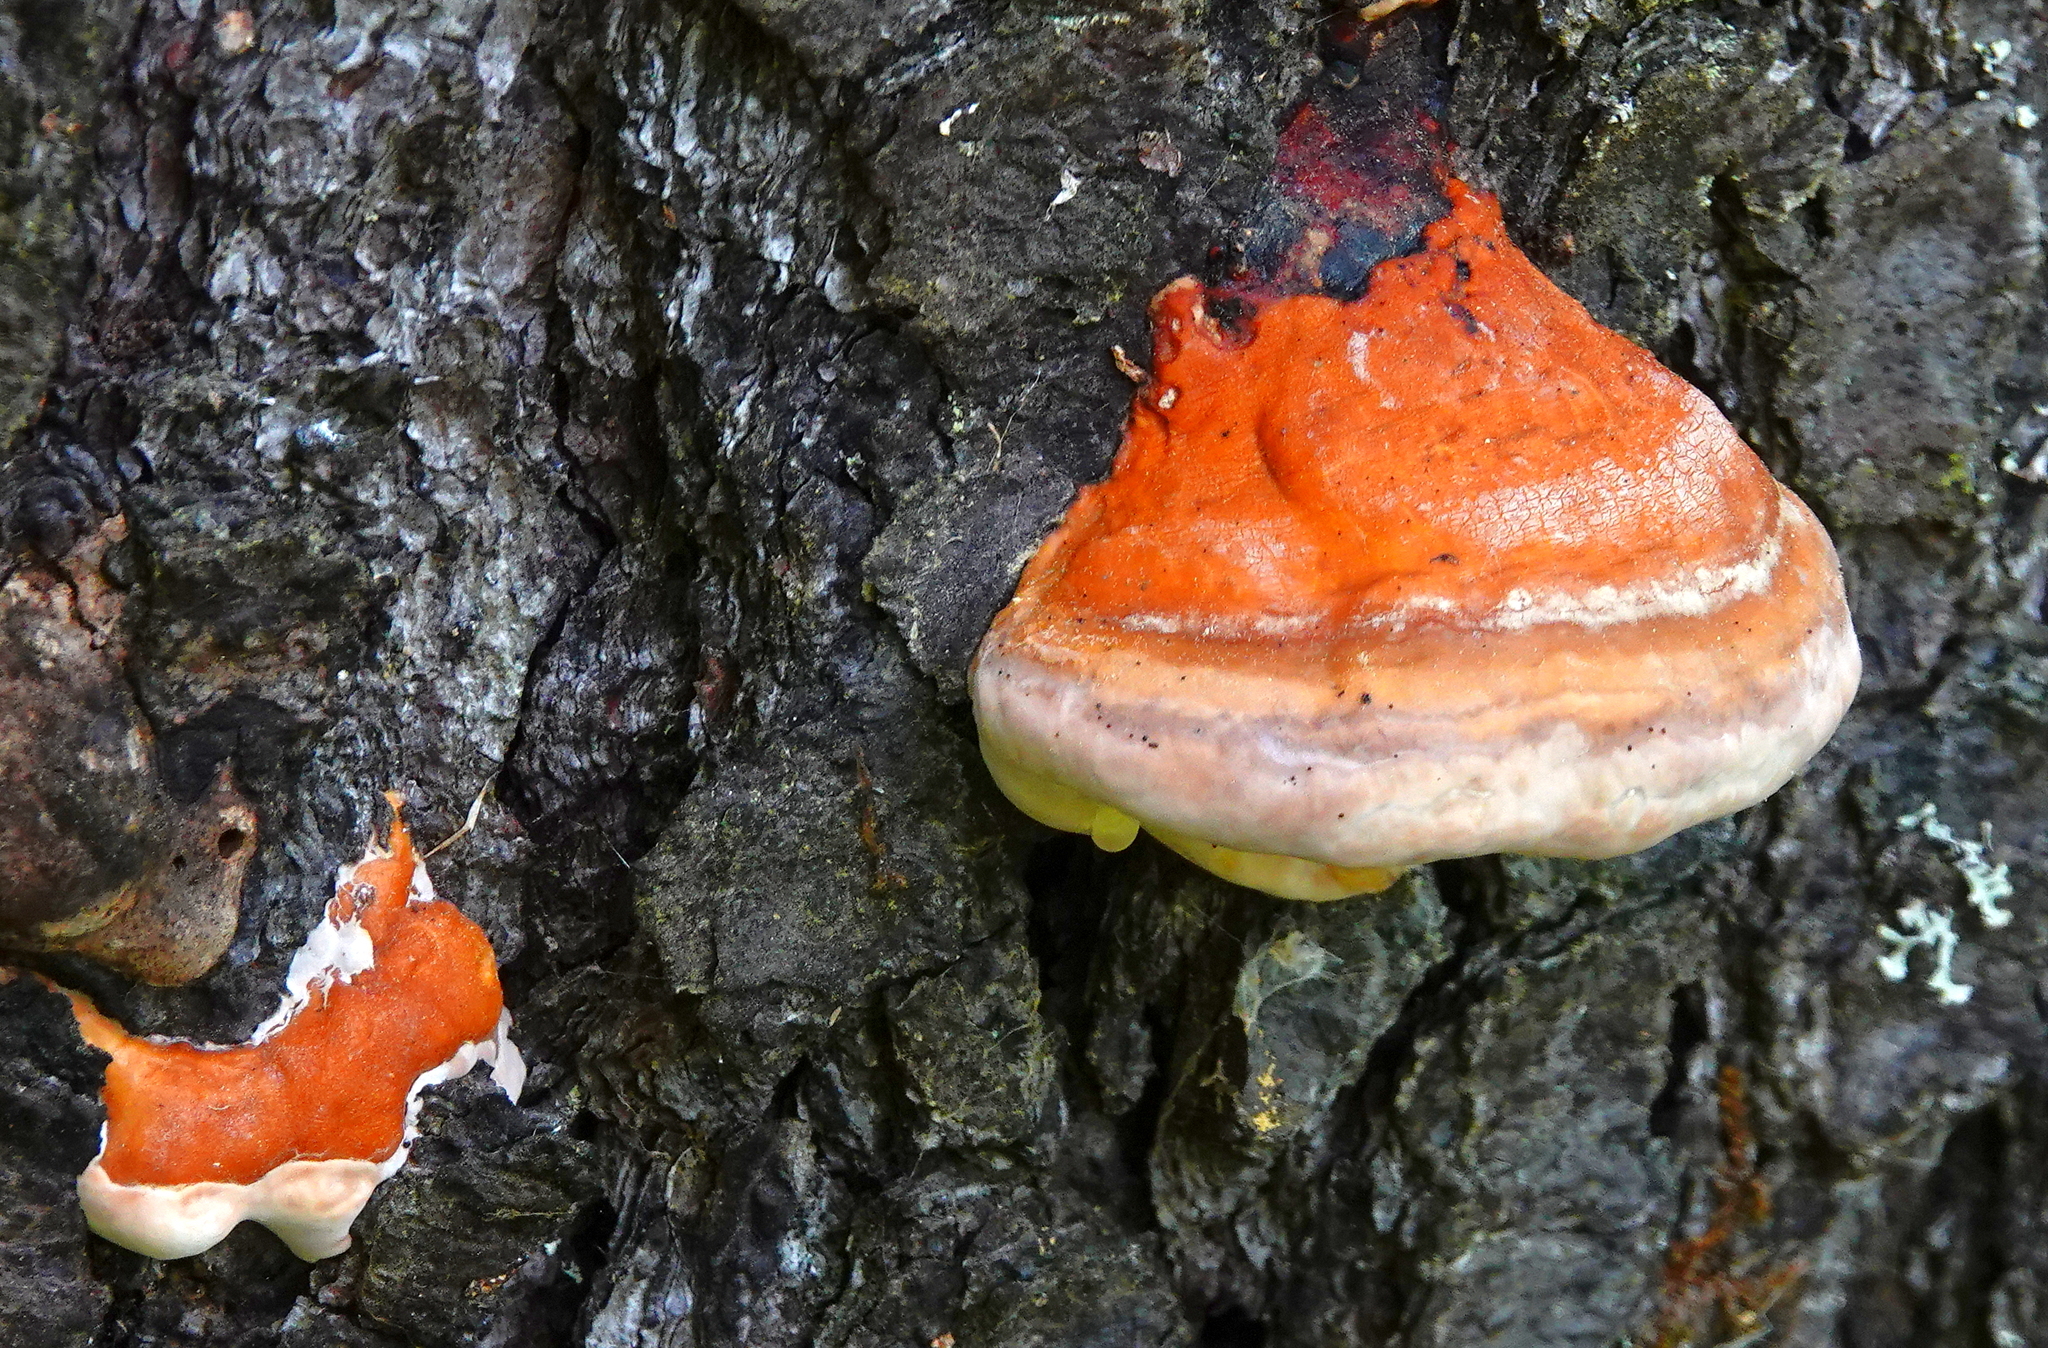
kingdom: Fungi
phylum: Basidiomycota
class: Agaricomycetes
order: Polyporales
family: Fomitopsidaceae
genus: Fomitopsis
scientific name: Fomitopsis mounceae
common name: Northern red belt
